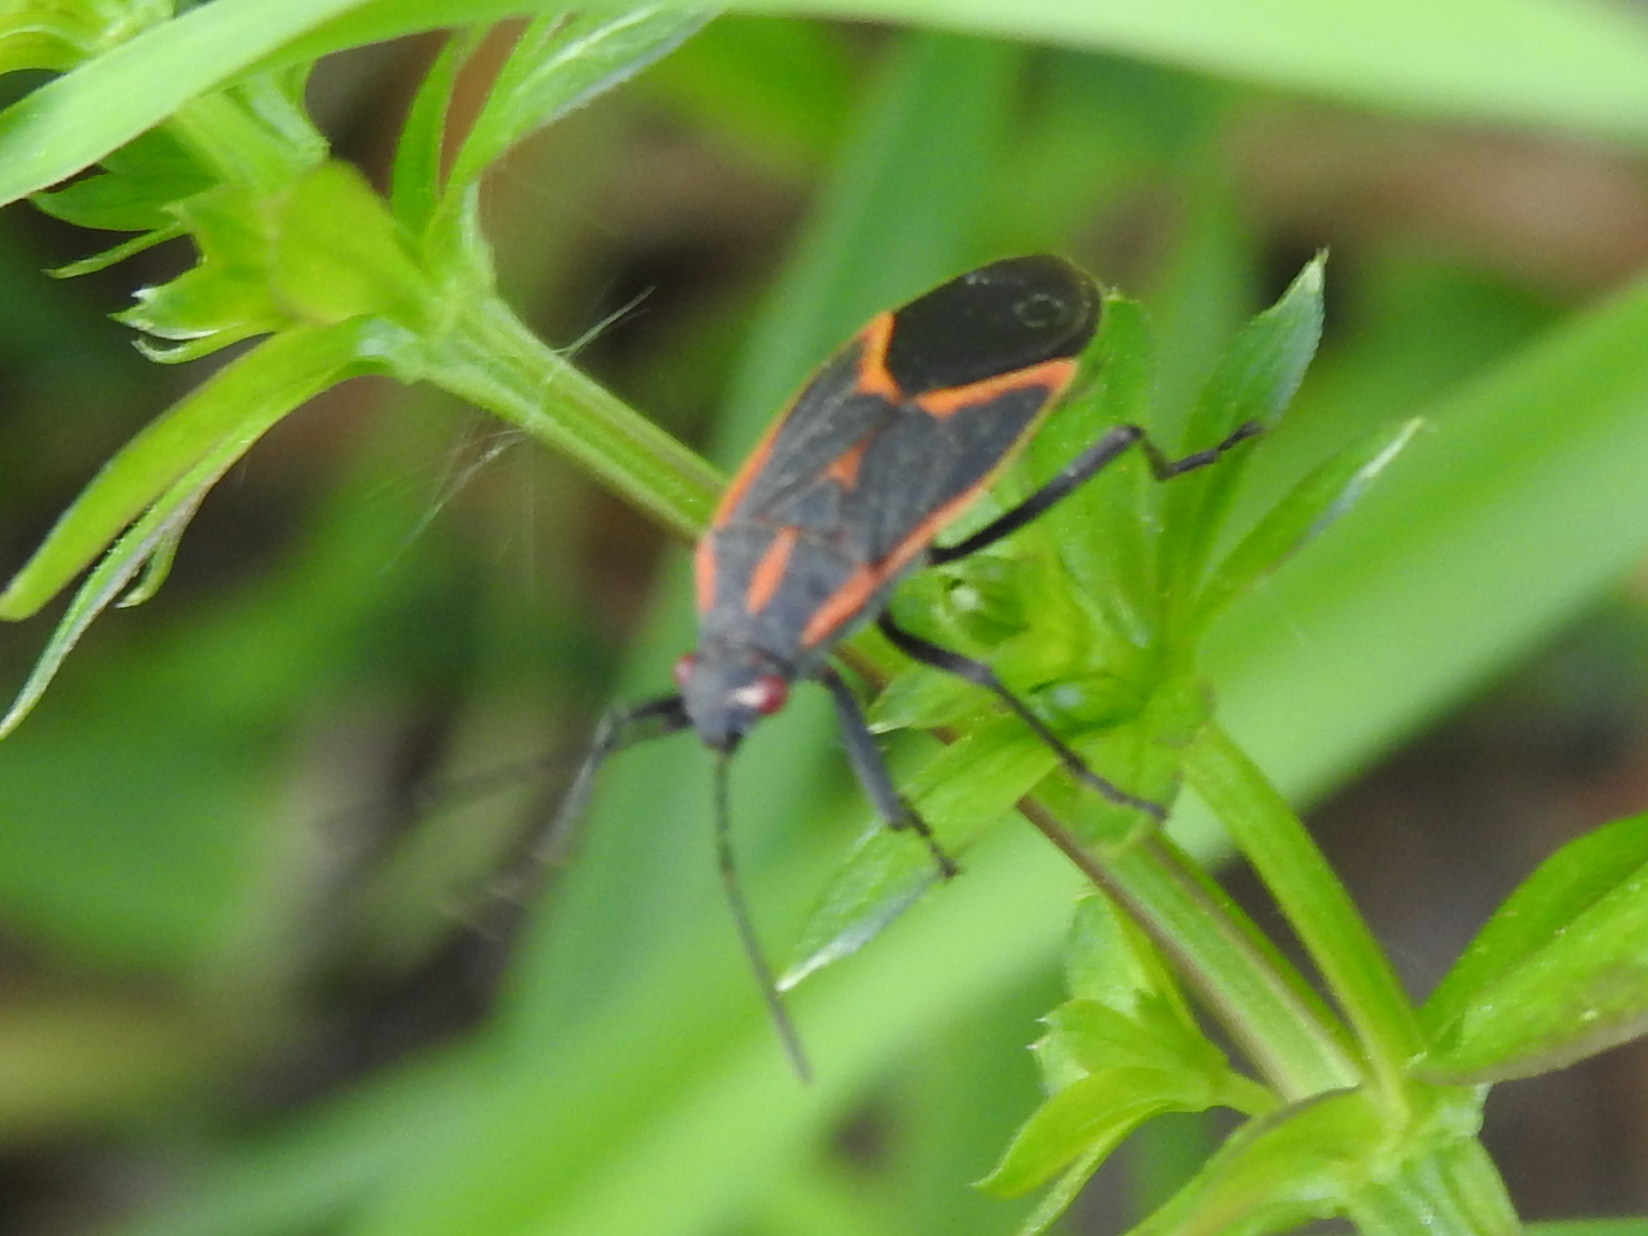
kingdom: Animalia
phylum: Arthropoda
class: Insecta
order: Hemiptera
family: Rhopalidae
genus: Boisea
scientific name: Boisea trivittata
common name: Boxelder bug
